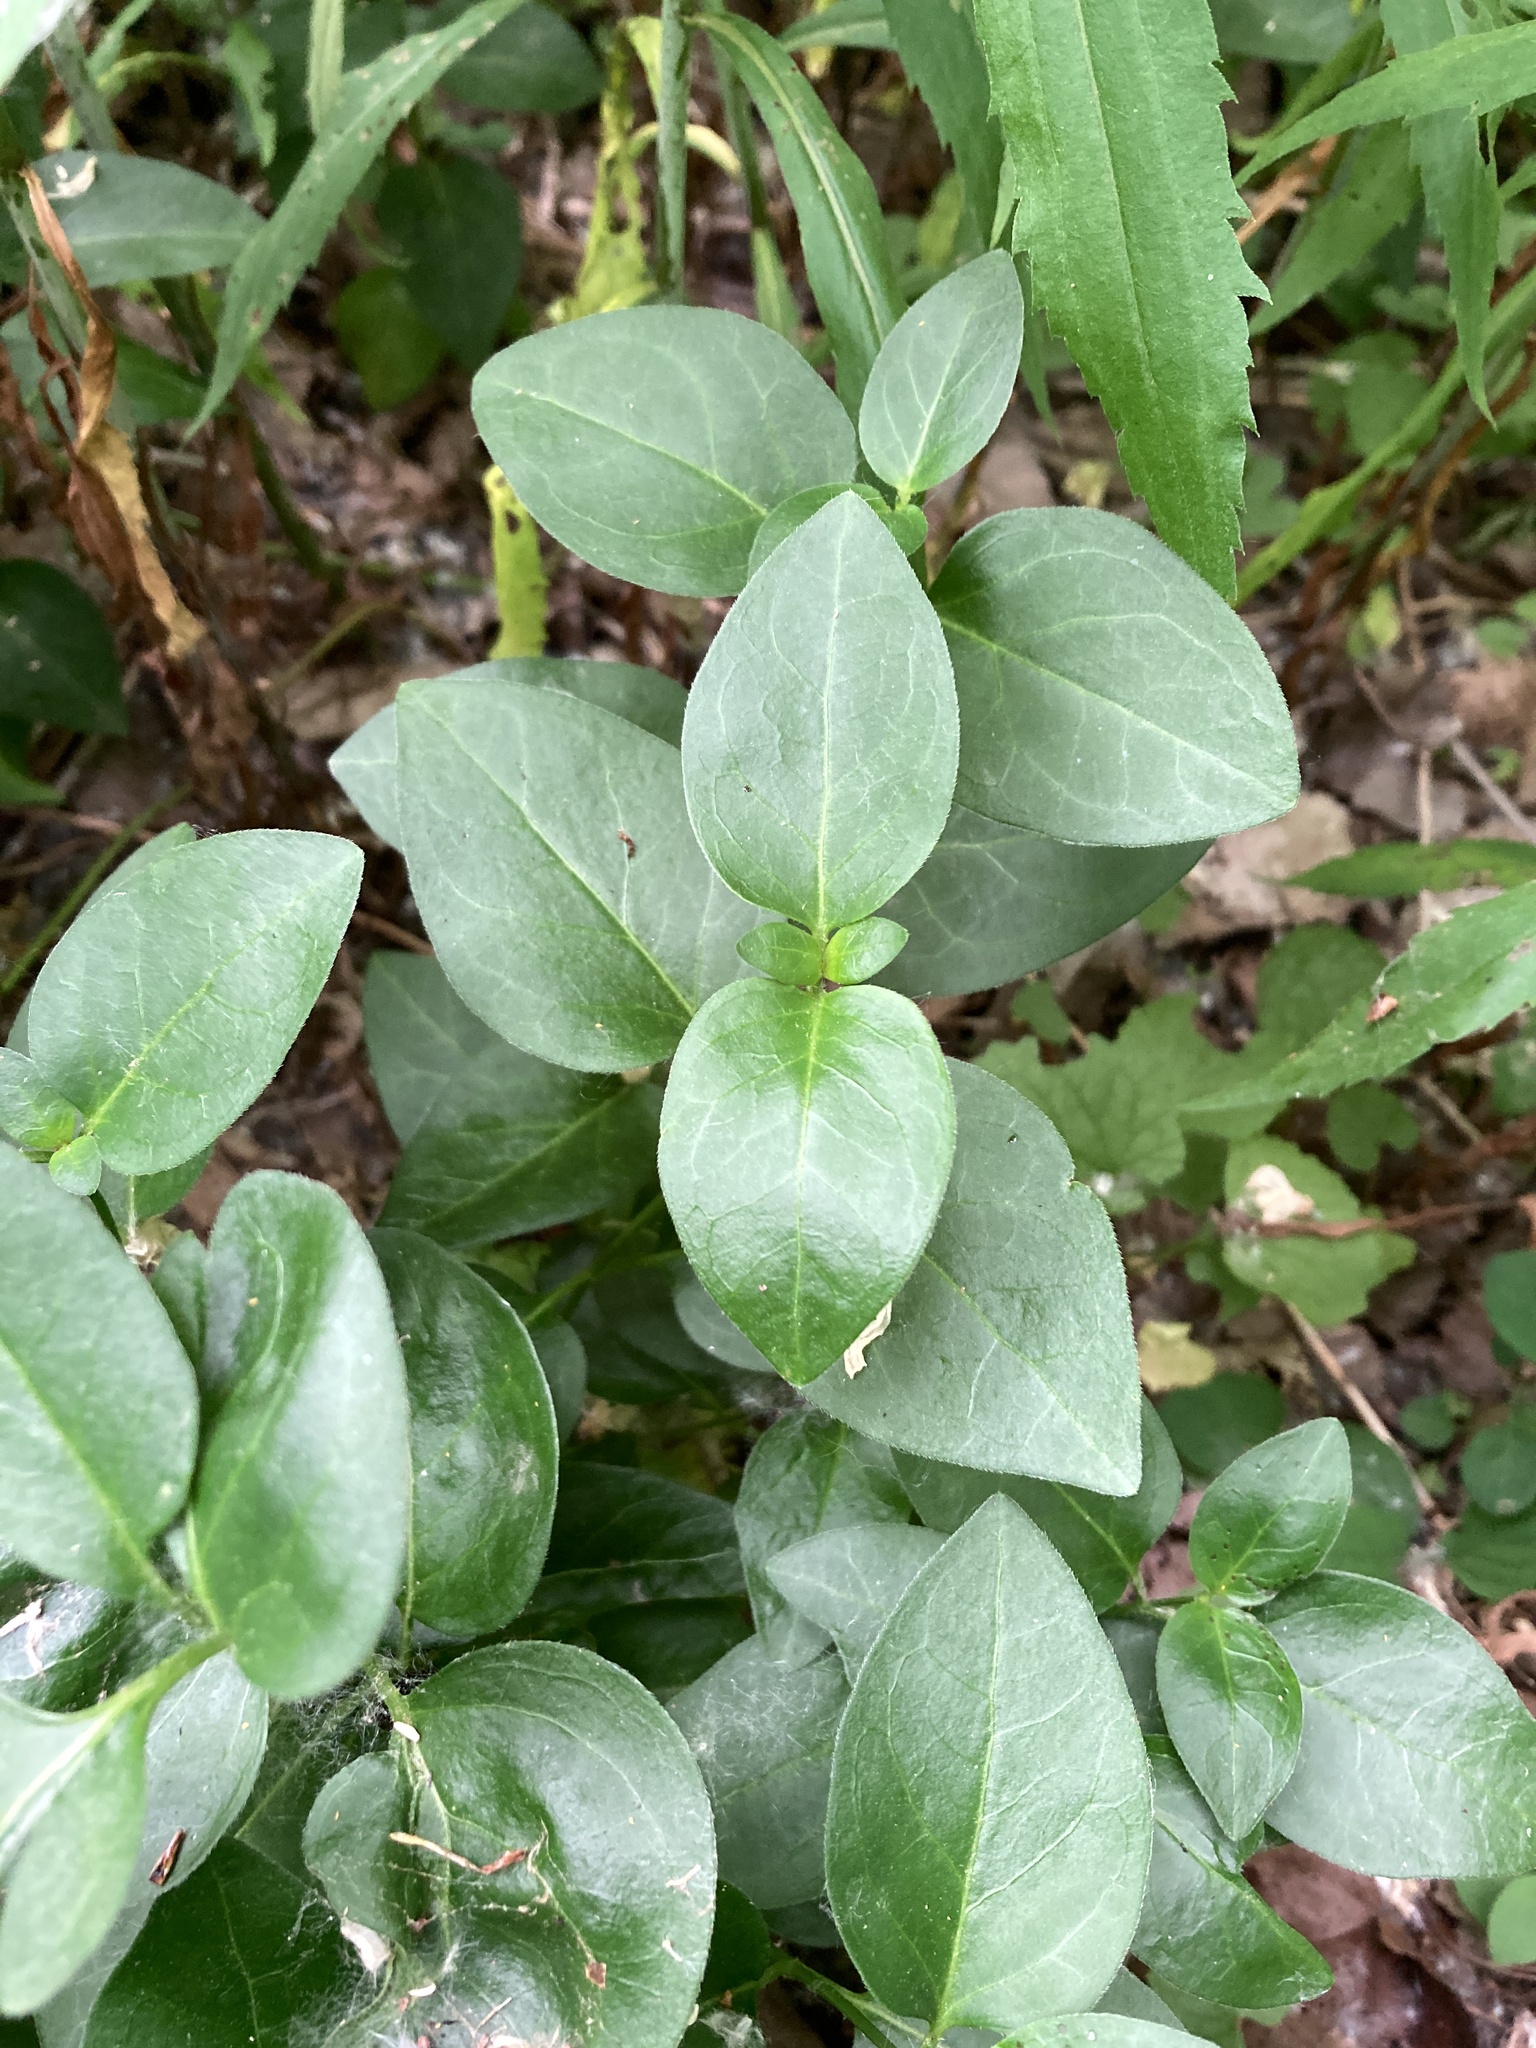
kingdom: Plantae
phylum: Tracheophyta
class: Magnoliopsida
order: Gentianales
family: Apocynaceae
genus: Vinca
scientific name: Vinca major
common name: Greater periwinkle
